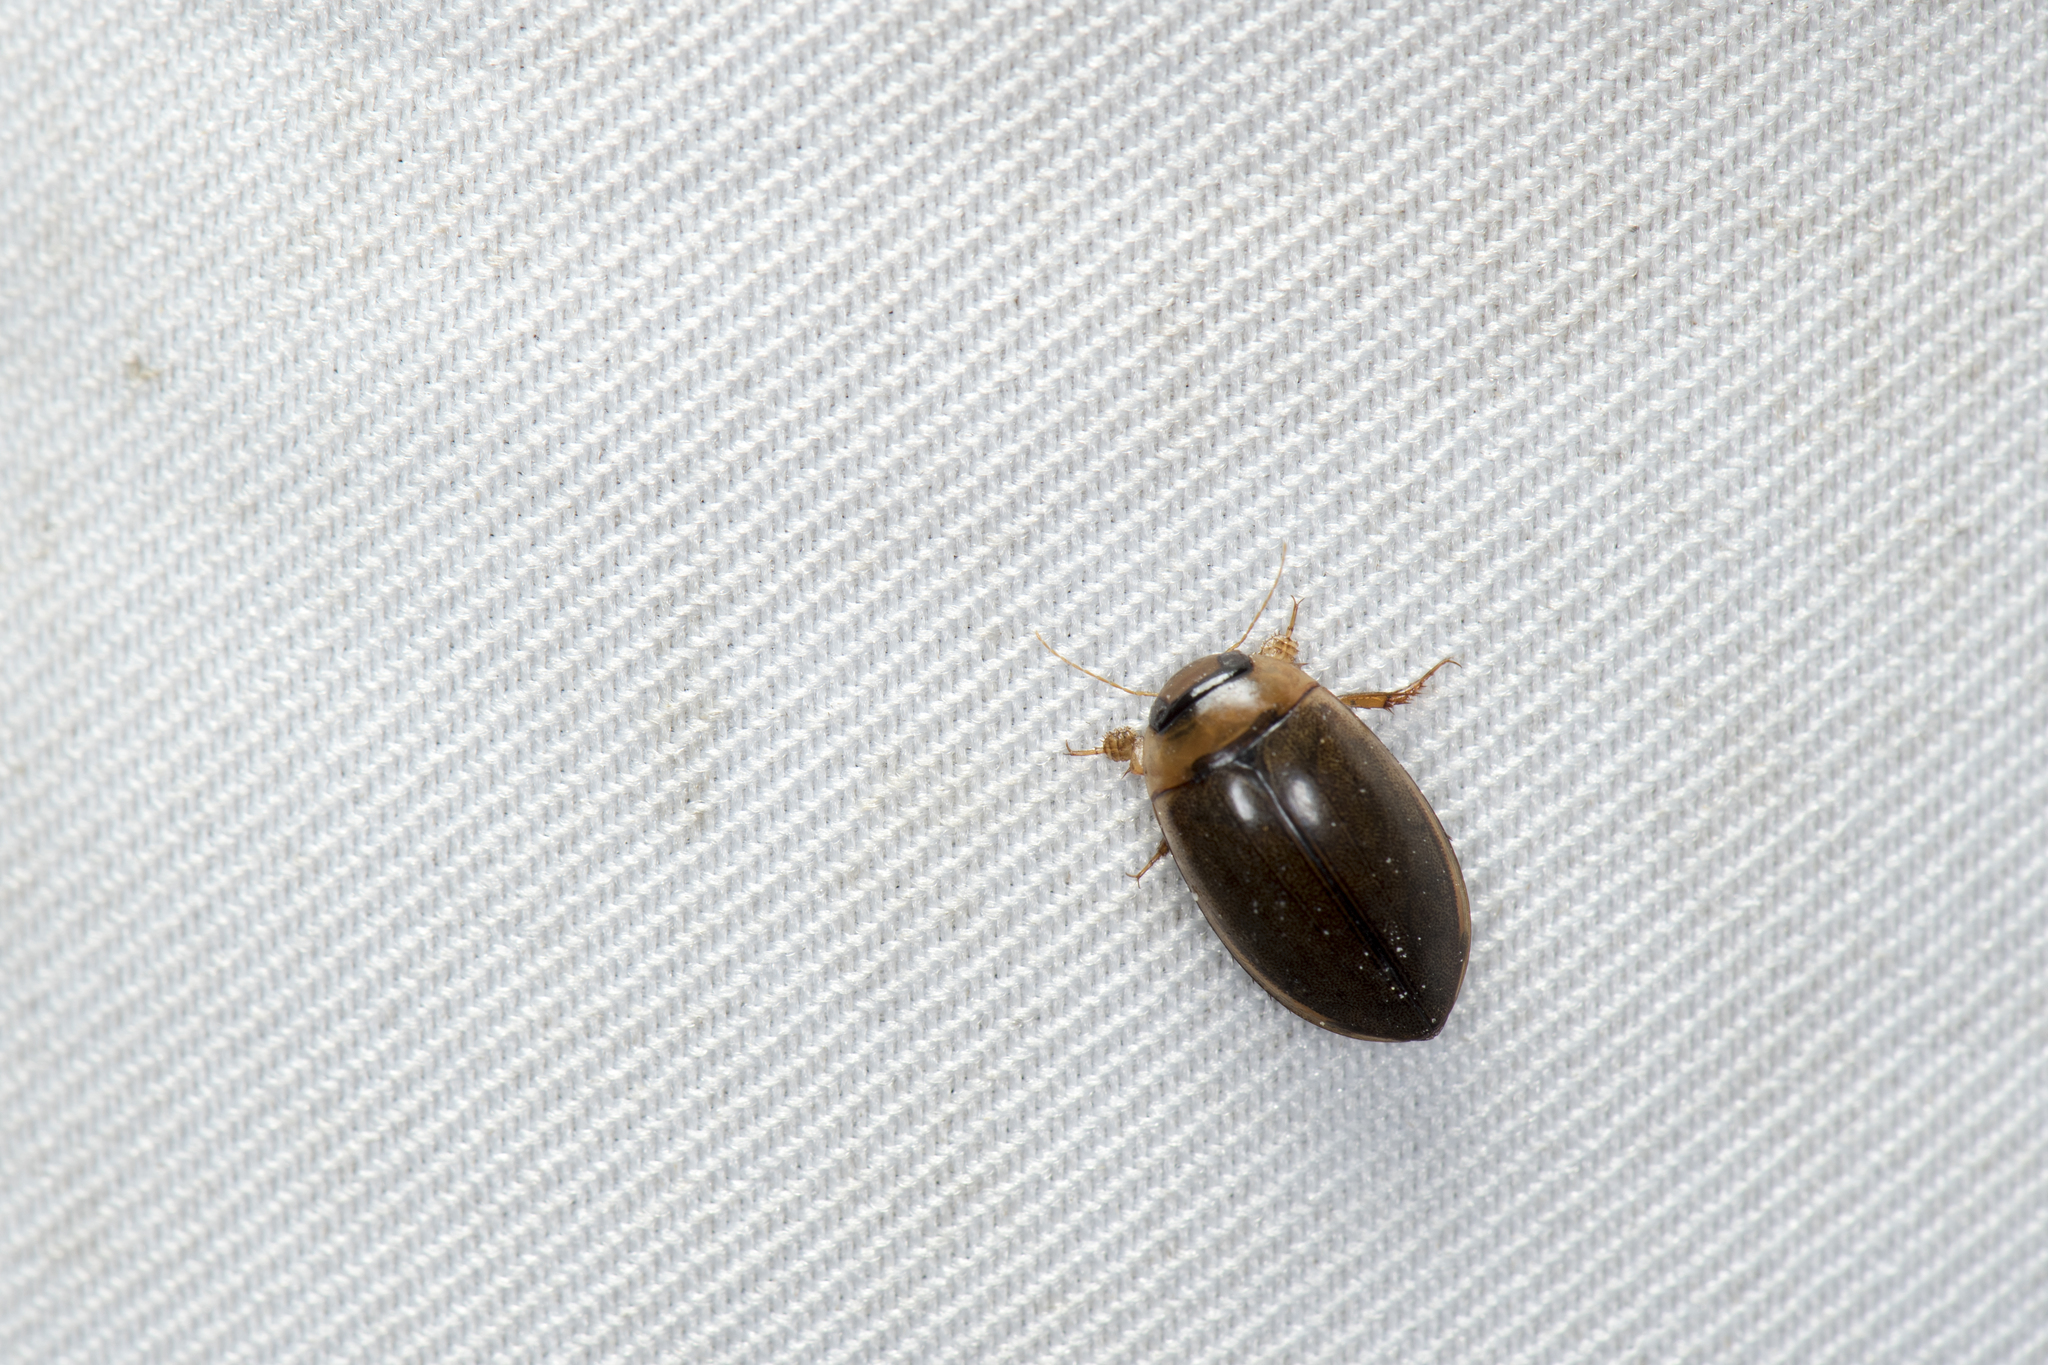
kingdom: Animalia
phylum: Arthropoda
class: Insecta
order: Coleoptera
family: Dytiscidae
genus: Hydaticus
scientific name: Hydaticus rhantoides
